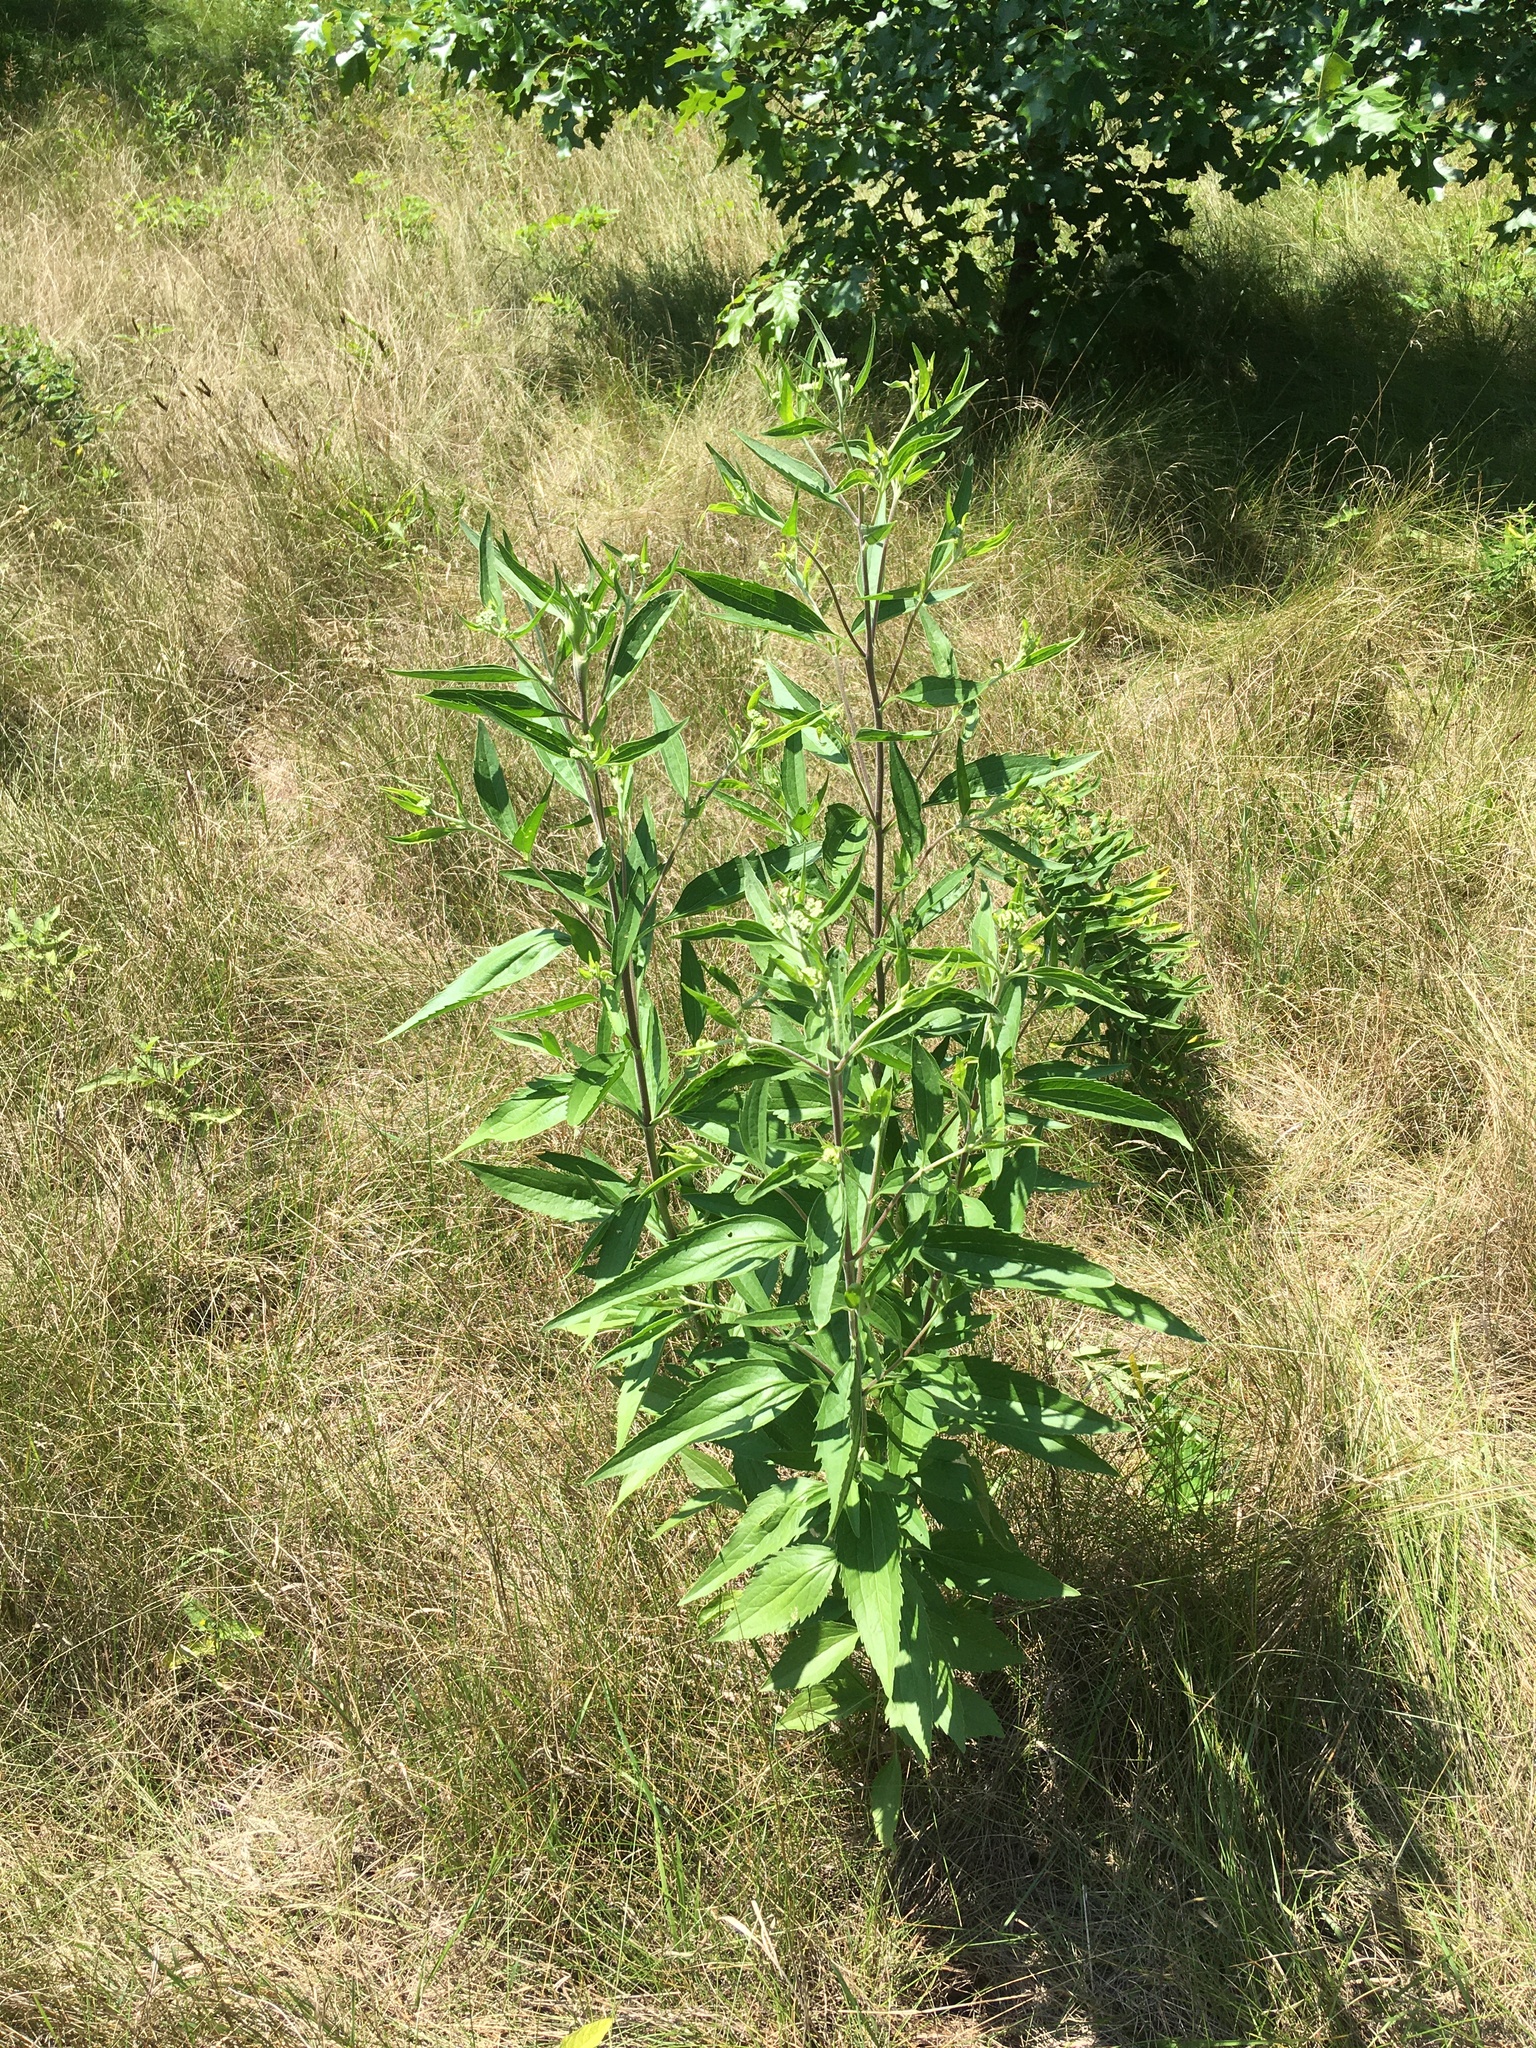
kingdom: Plantae
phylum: Tracheophyta
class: Magnoliopsida
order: Asterales
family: Asteraceae
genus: Eupatorium
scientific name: Eupatorium serotinum
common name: Late boneset
